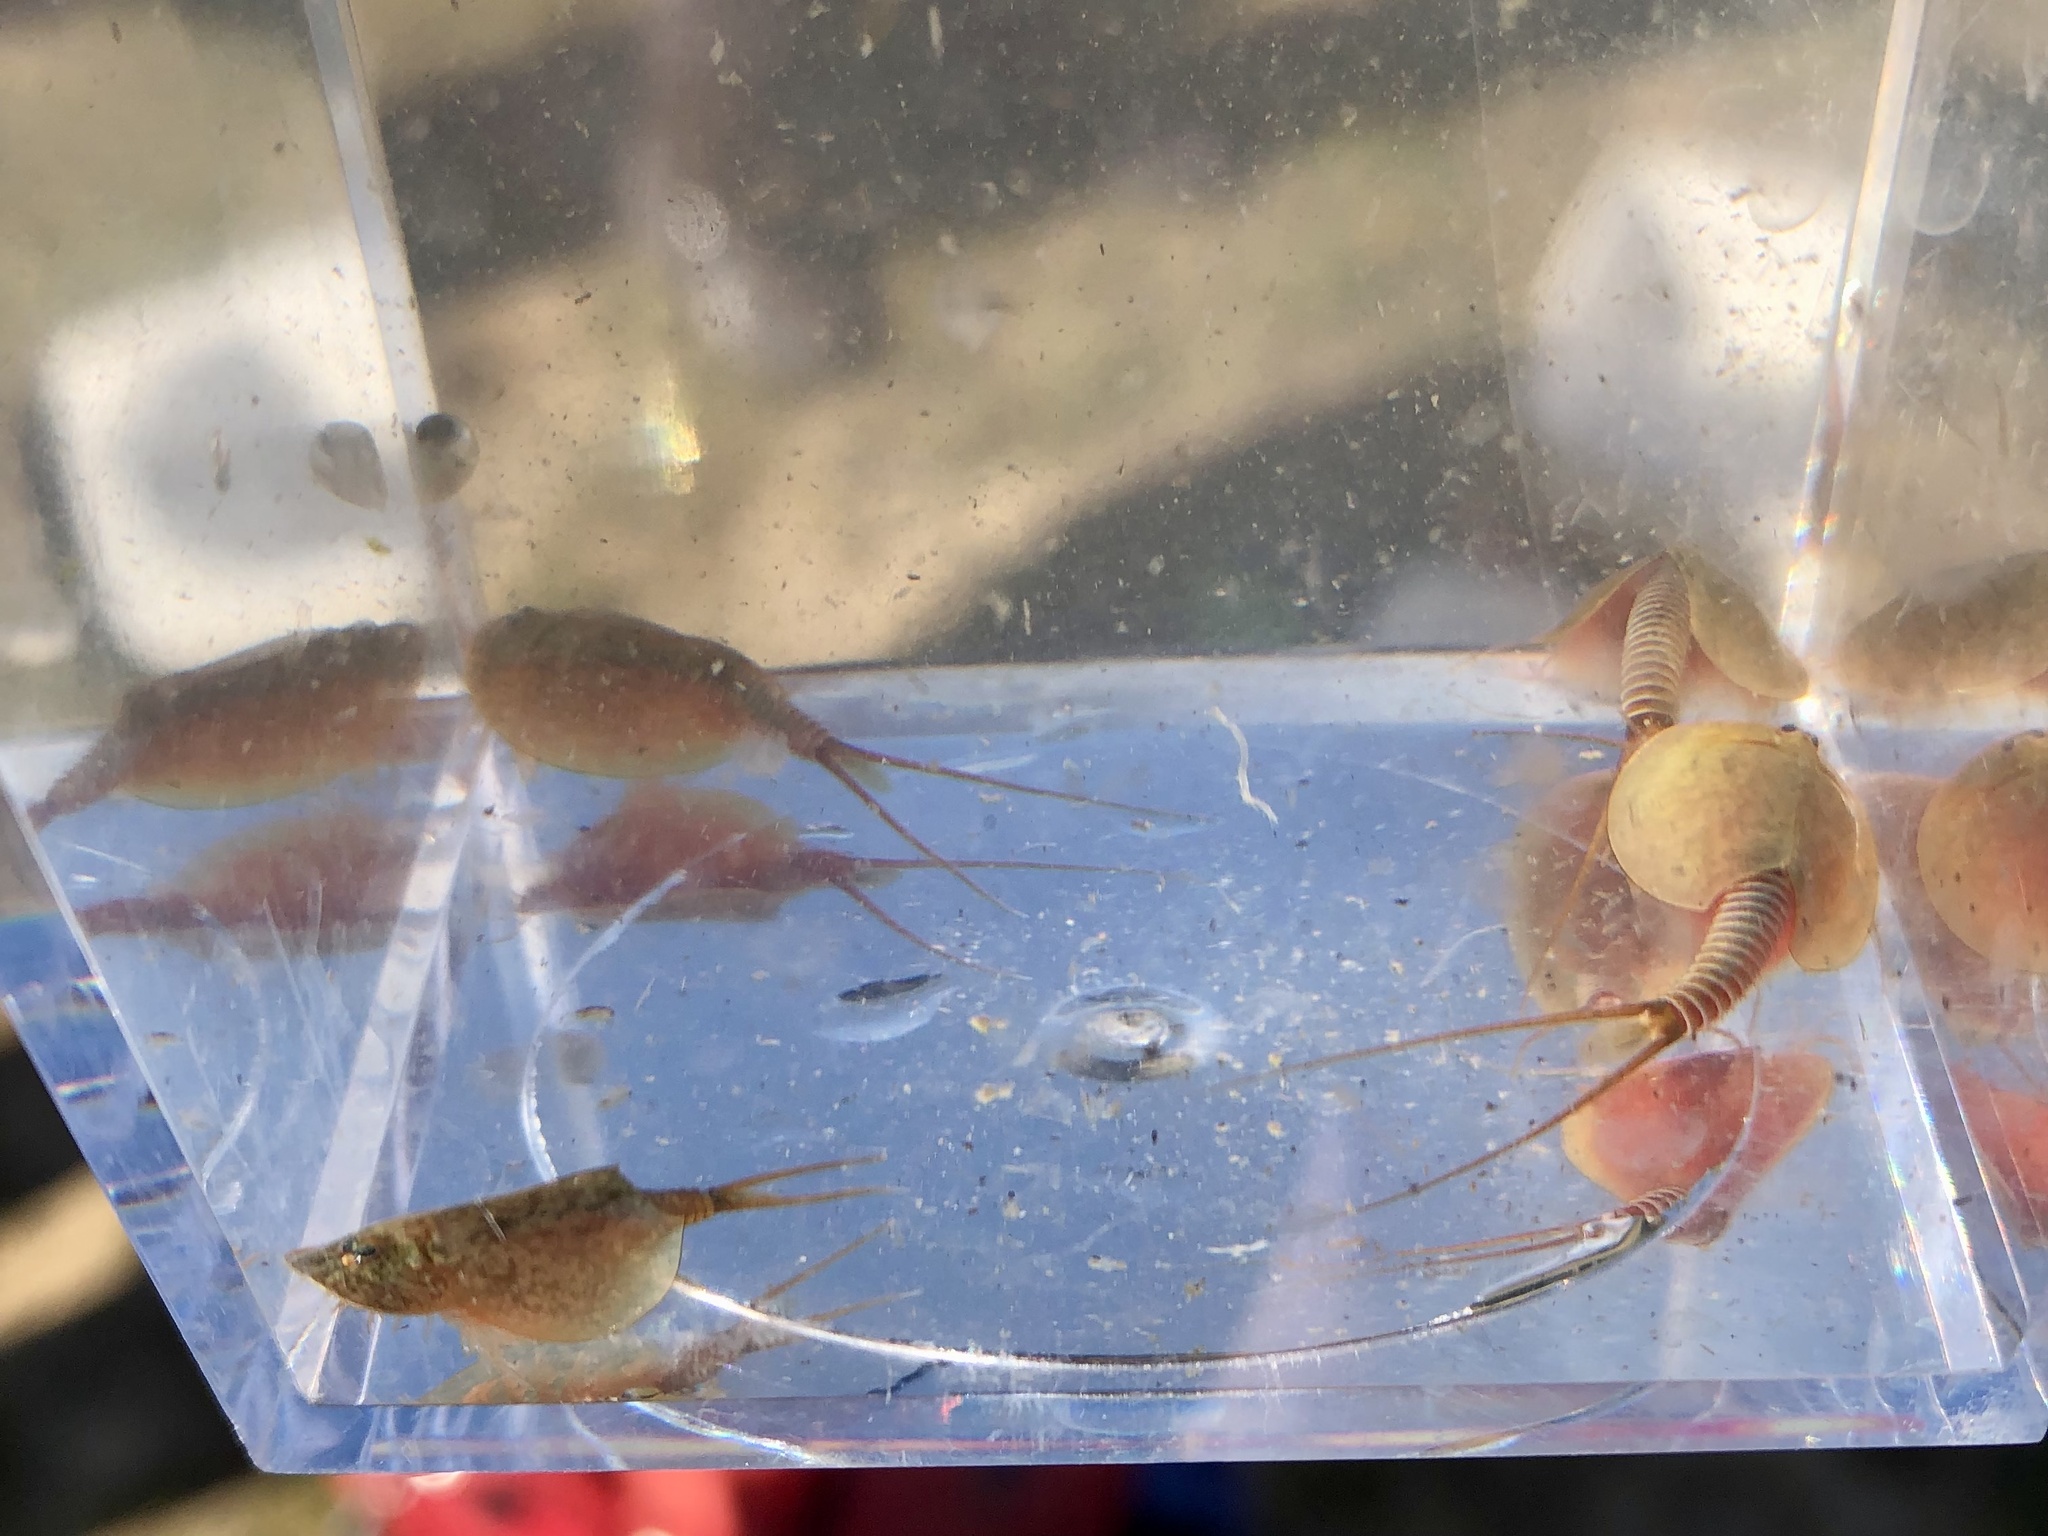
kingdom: Animalia
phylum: Arthropoda
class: Branchiopoda
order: Notostraca
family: Triopsidae
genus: Lepidurus
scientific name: Lepidurus packardi
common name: Vernal pool tadpole shrimp
